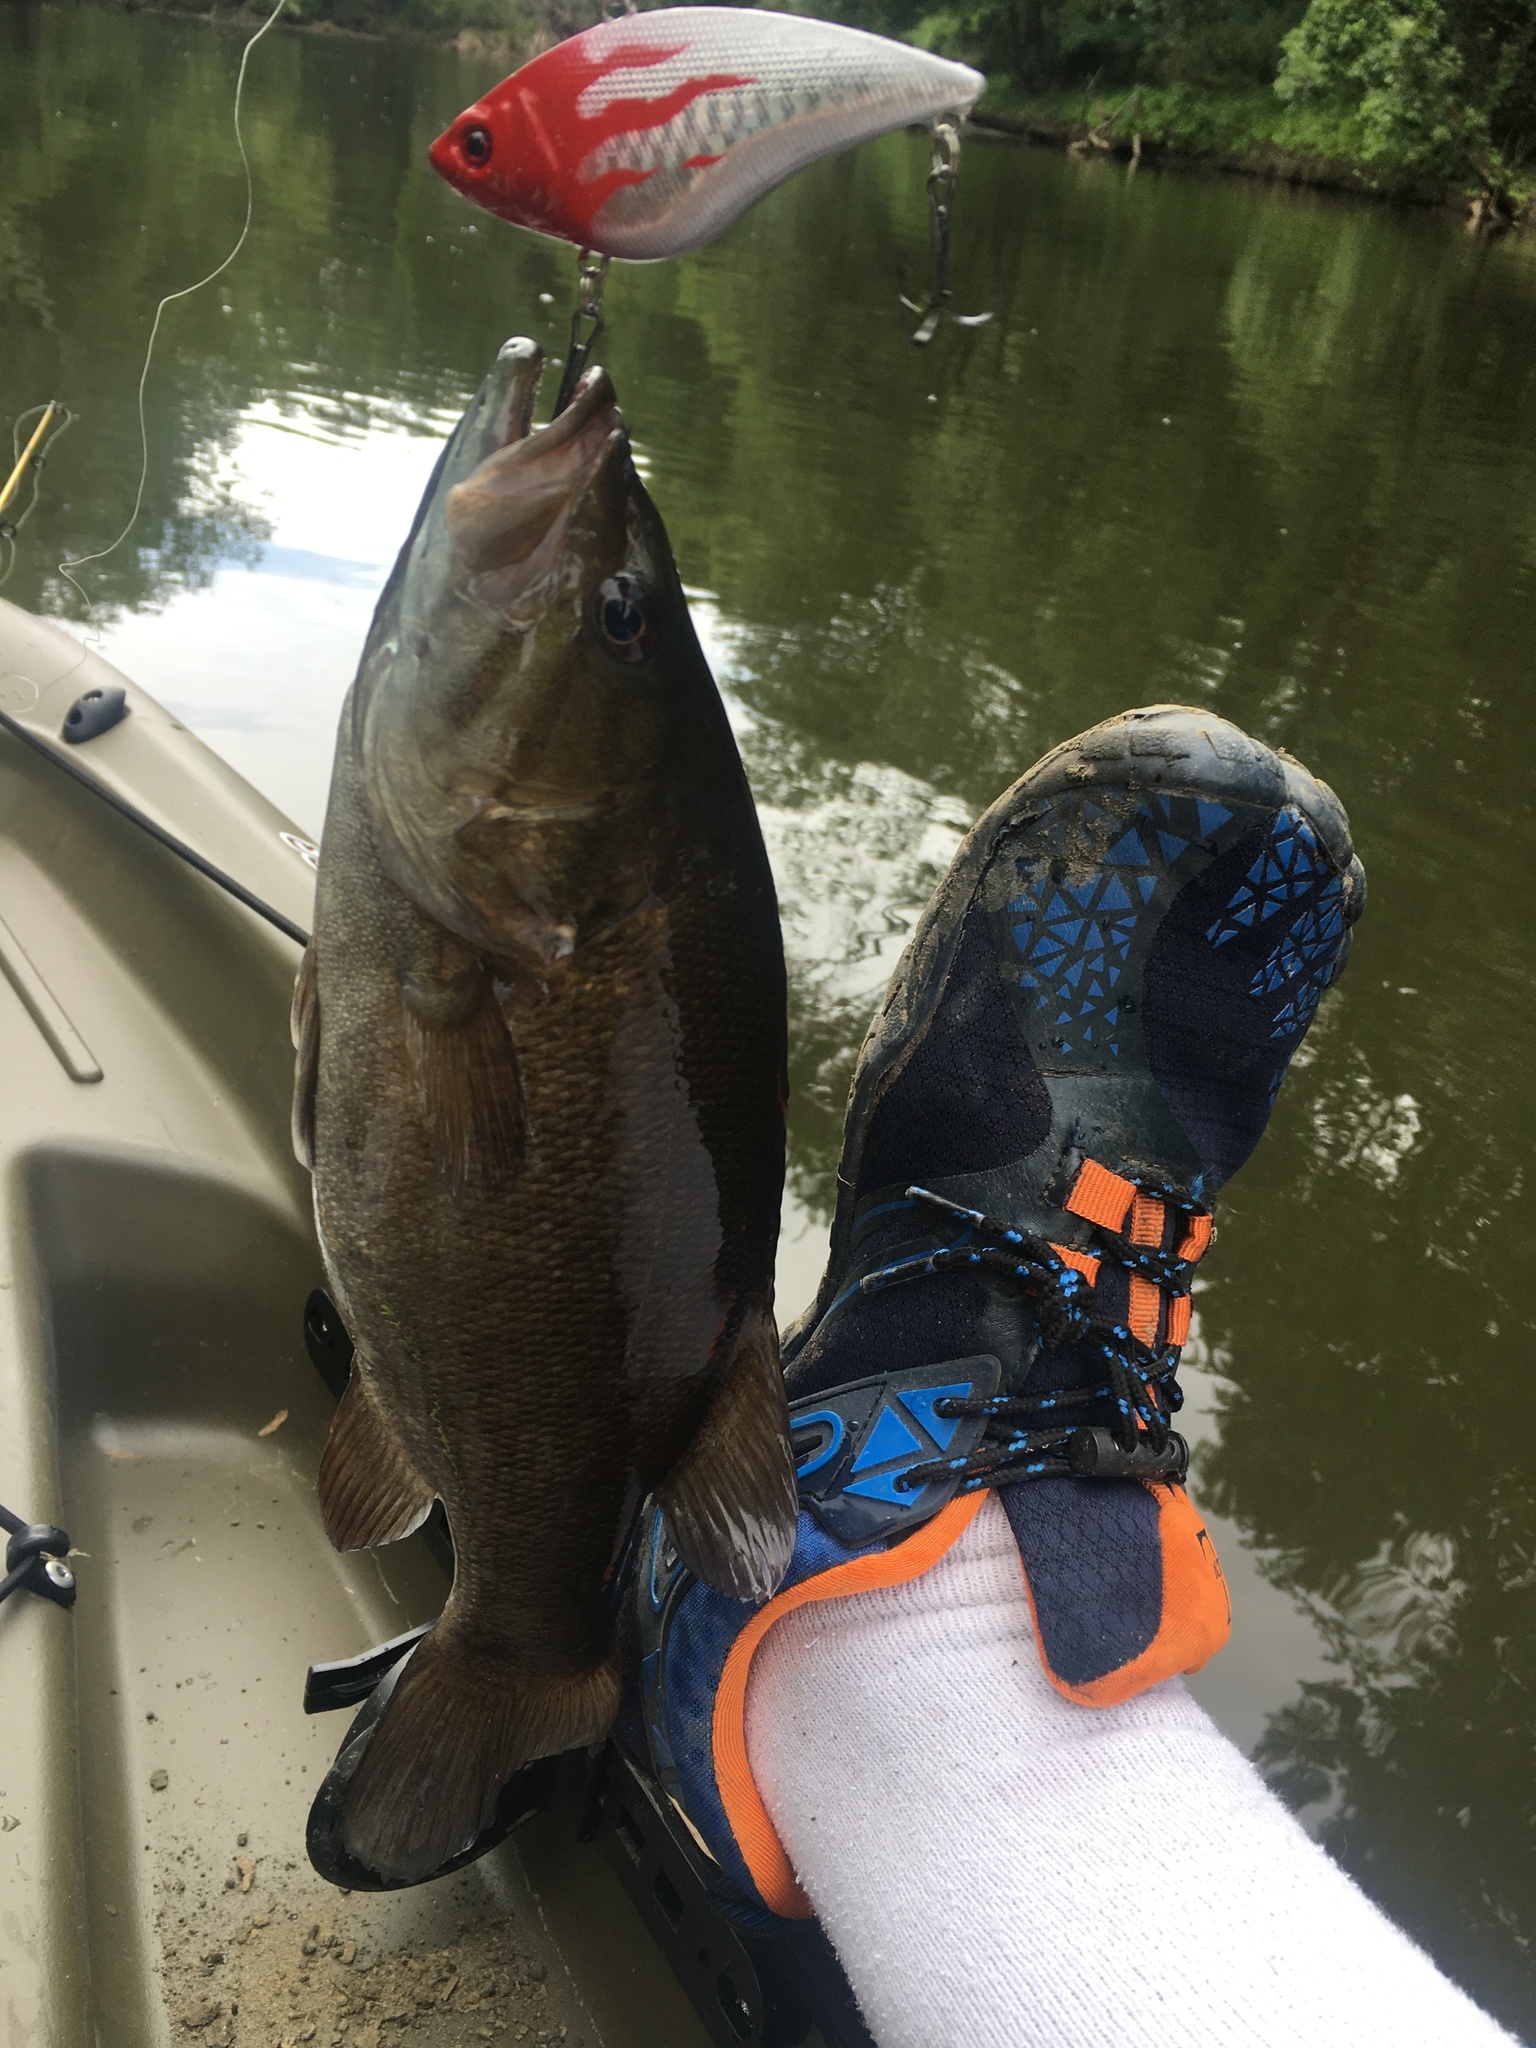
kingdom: Animalia
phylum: Chordata
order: Perciformes
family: Centrarchidae
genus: Micropterus
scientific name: Micropterus dolomieu
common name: Smallmouth bass
